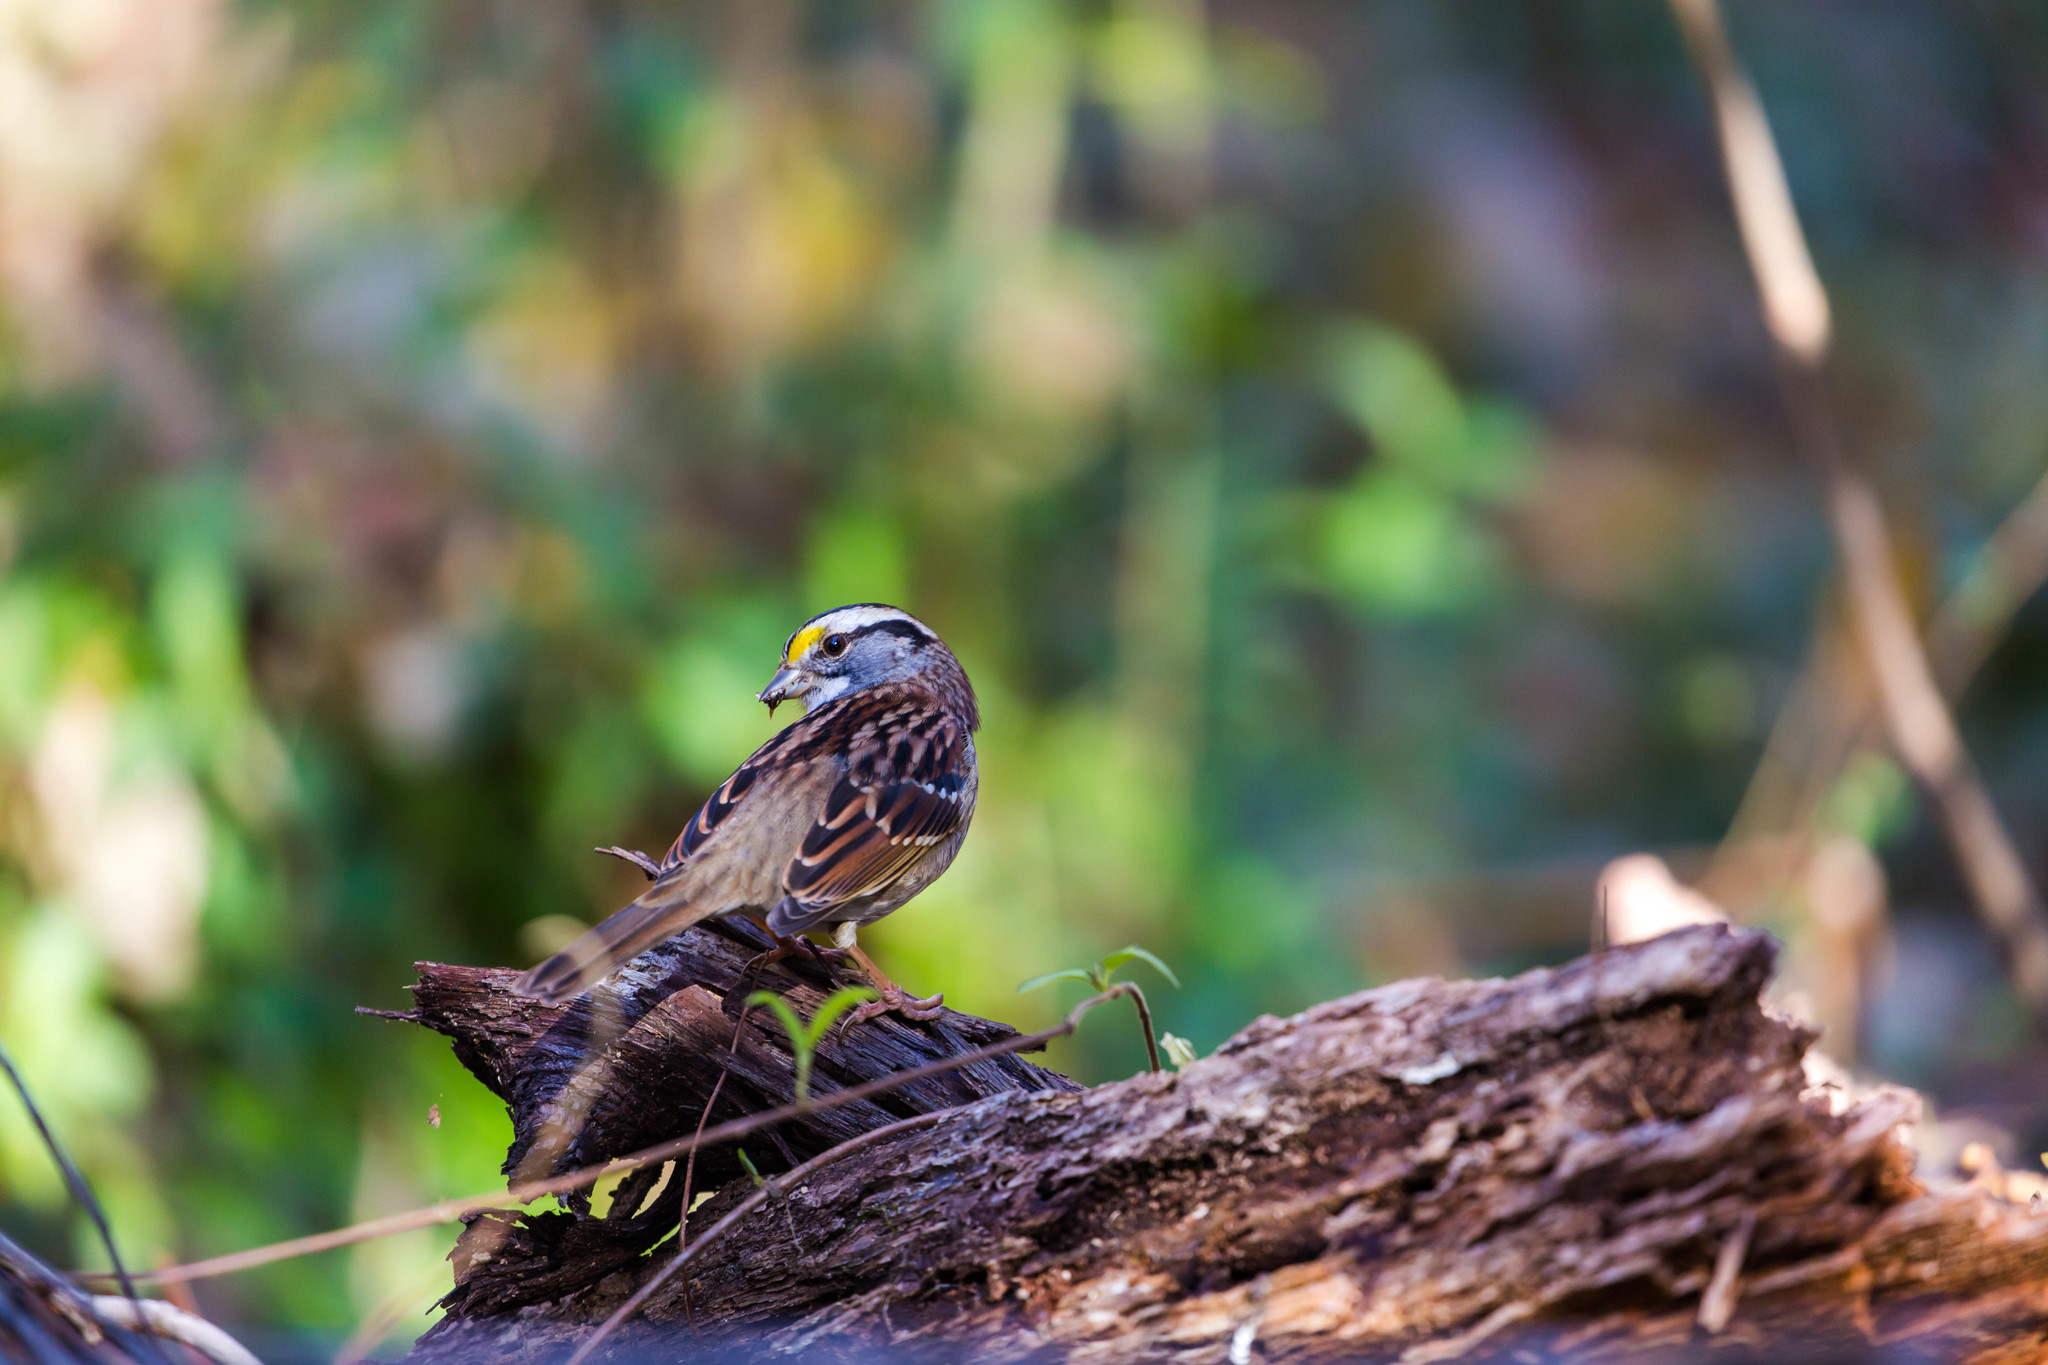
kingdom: Animalia
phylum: Chordata
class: Aves
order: Passeriformes
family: Passerellidae
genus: Zonotrichia
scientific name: Zonotrichia albicollis
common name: White-throated sparrow
